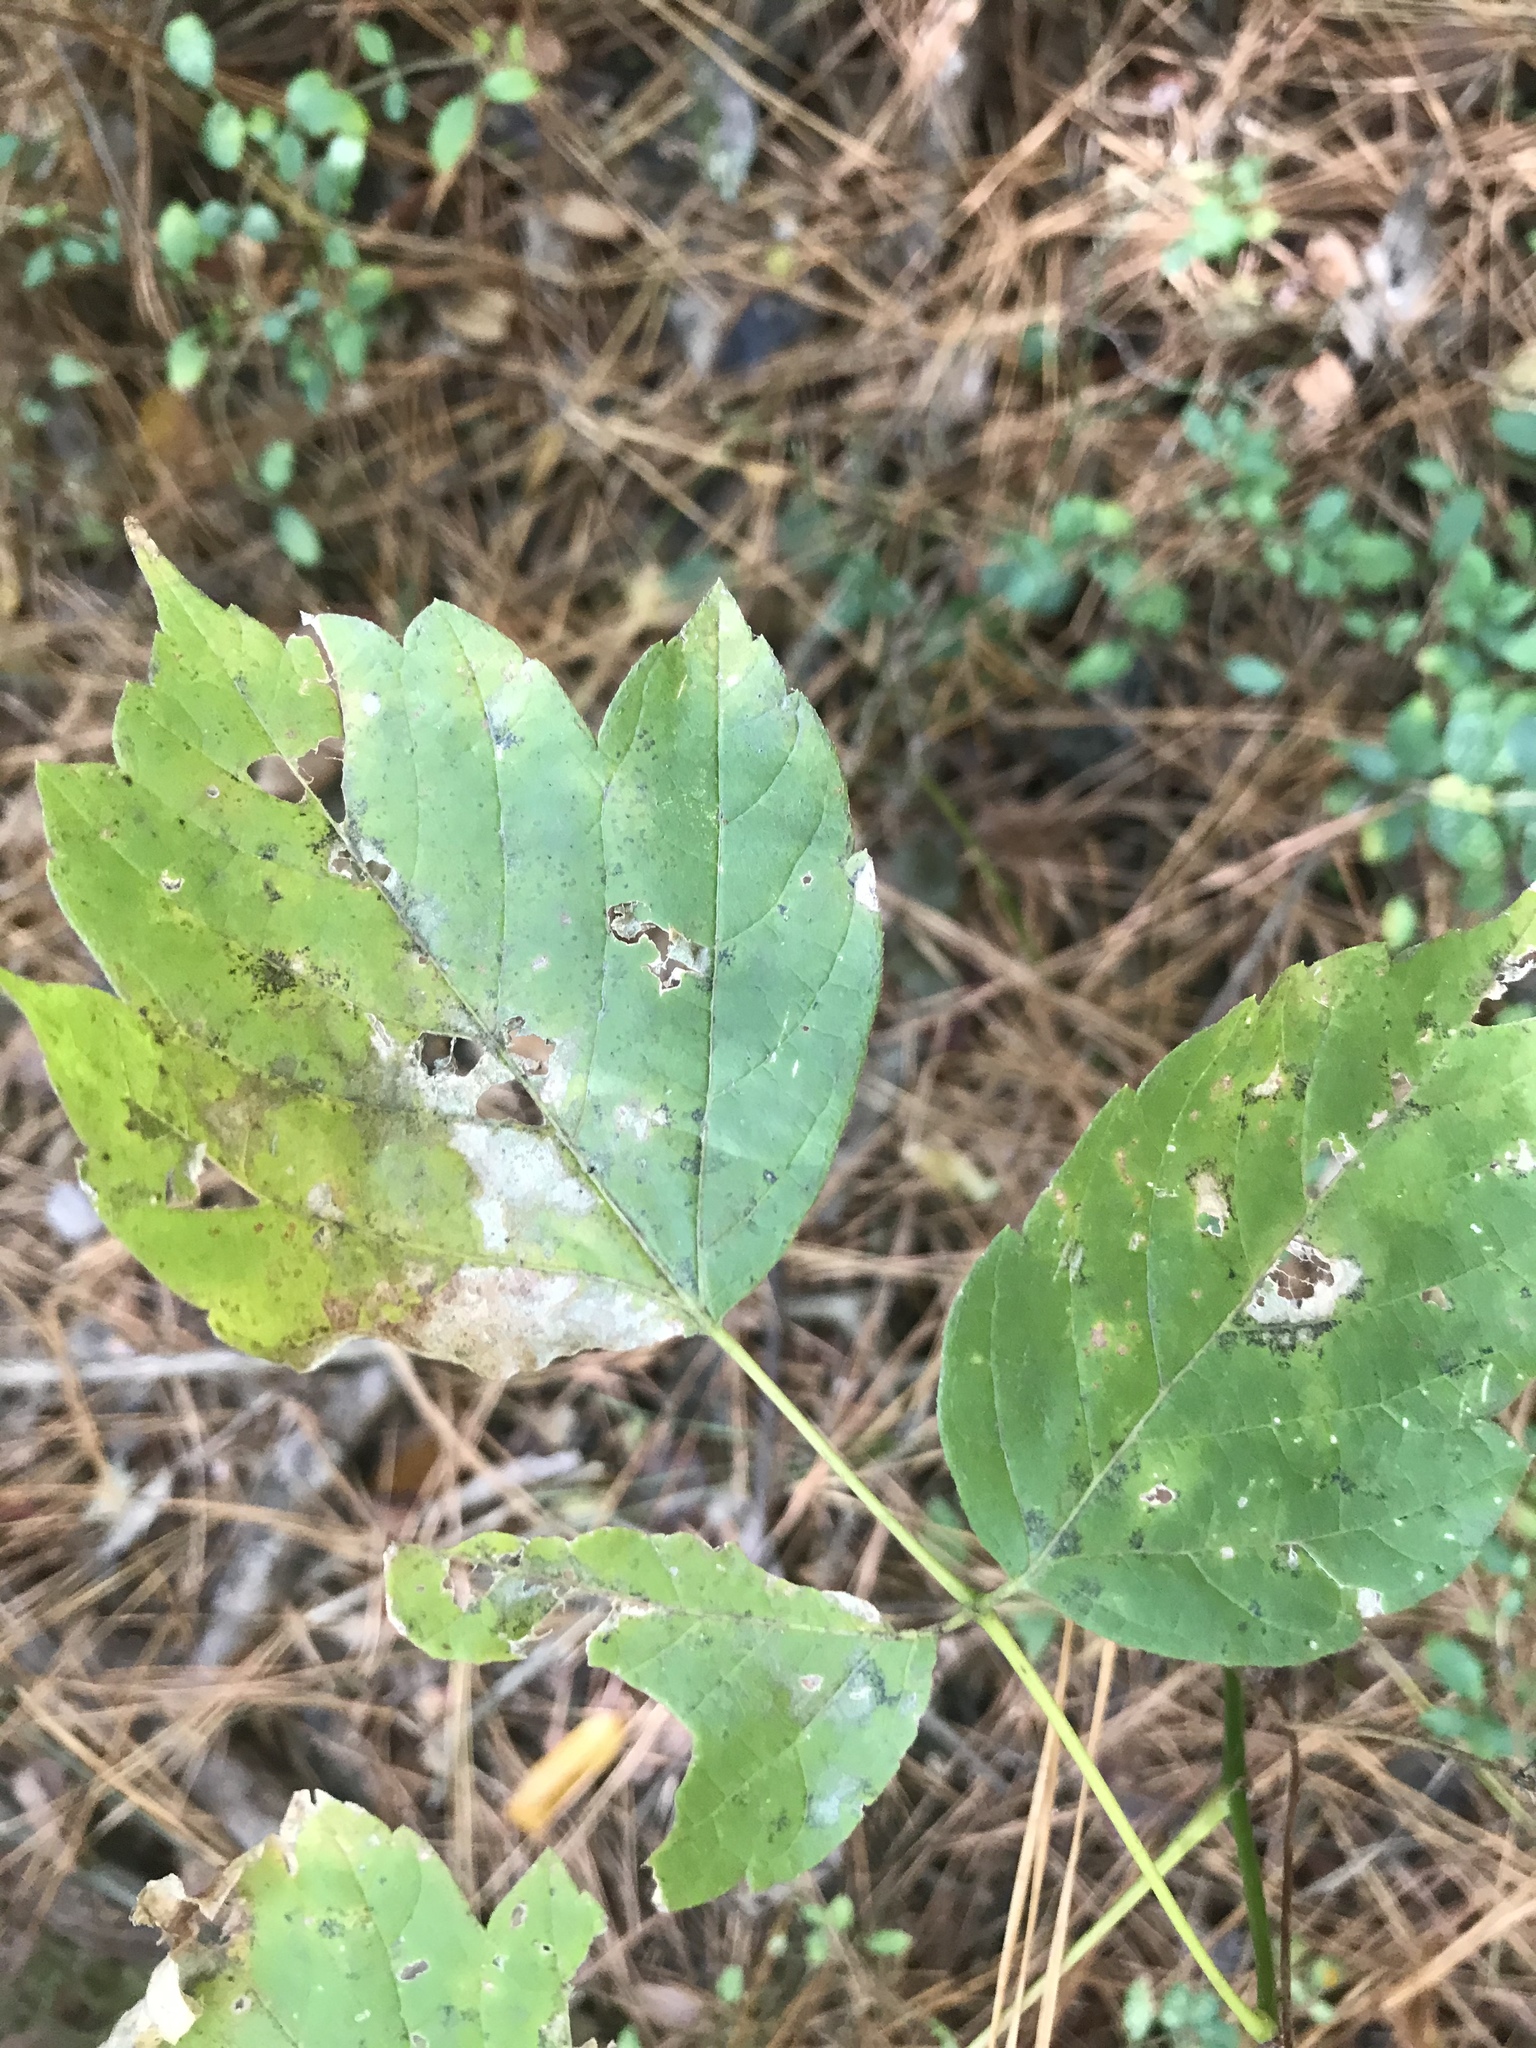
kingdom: Plantae
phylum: Tracheophyta
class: Magnoliopsida
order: Sapindales
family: Sapindaceae
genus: Acer
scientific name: Acer negundo
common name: Ashleaf maple
